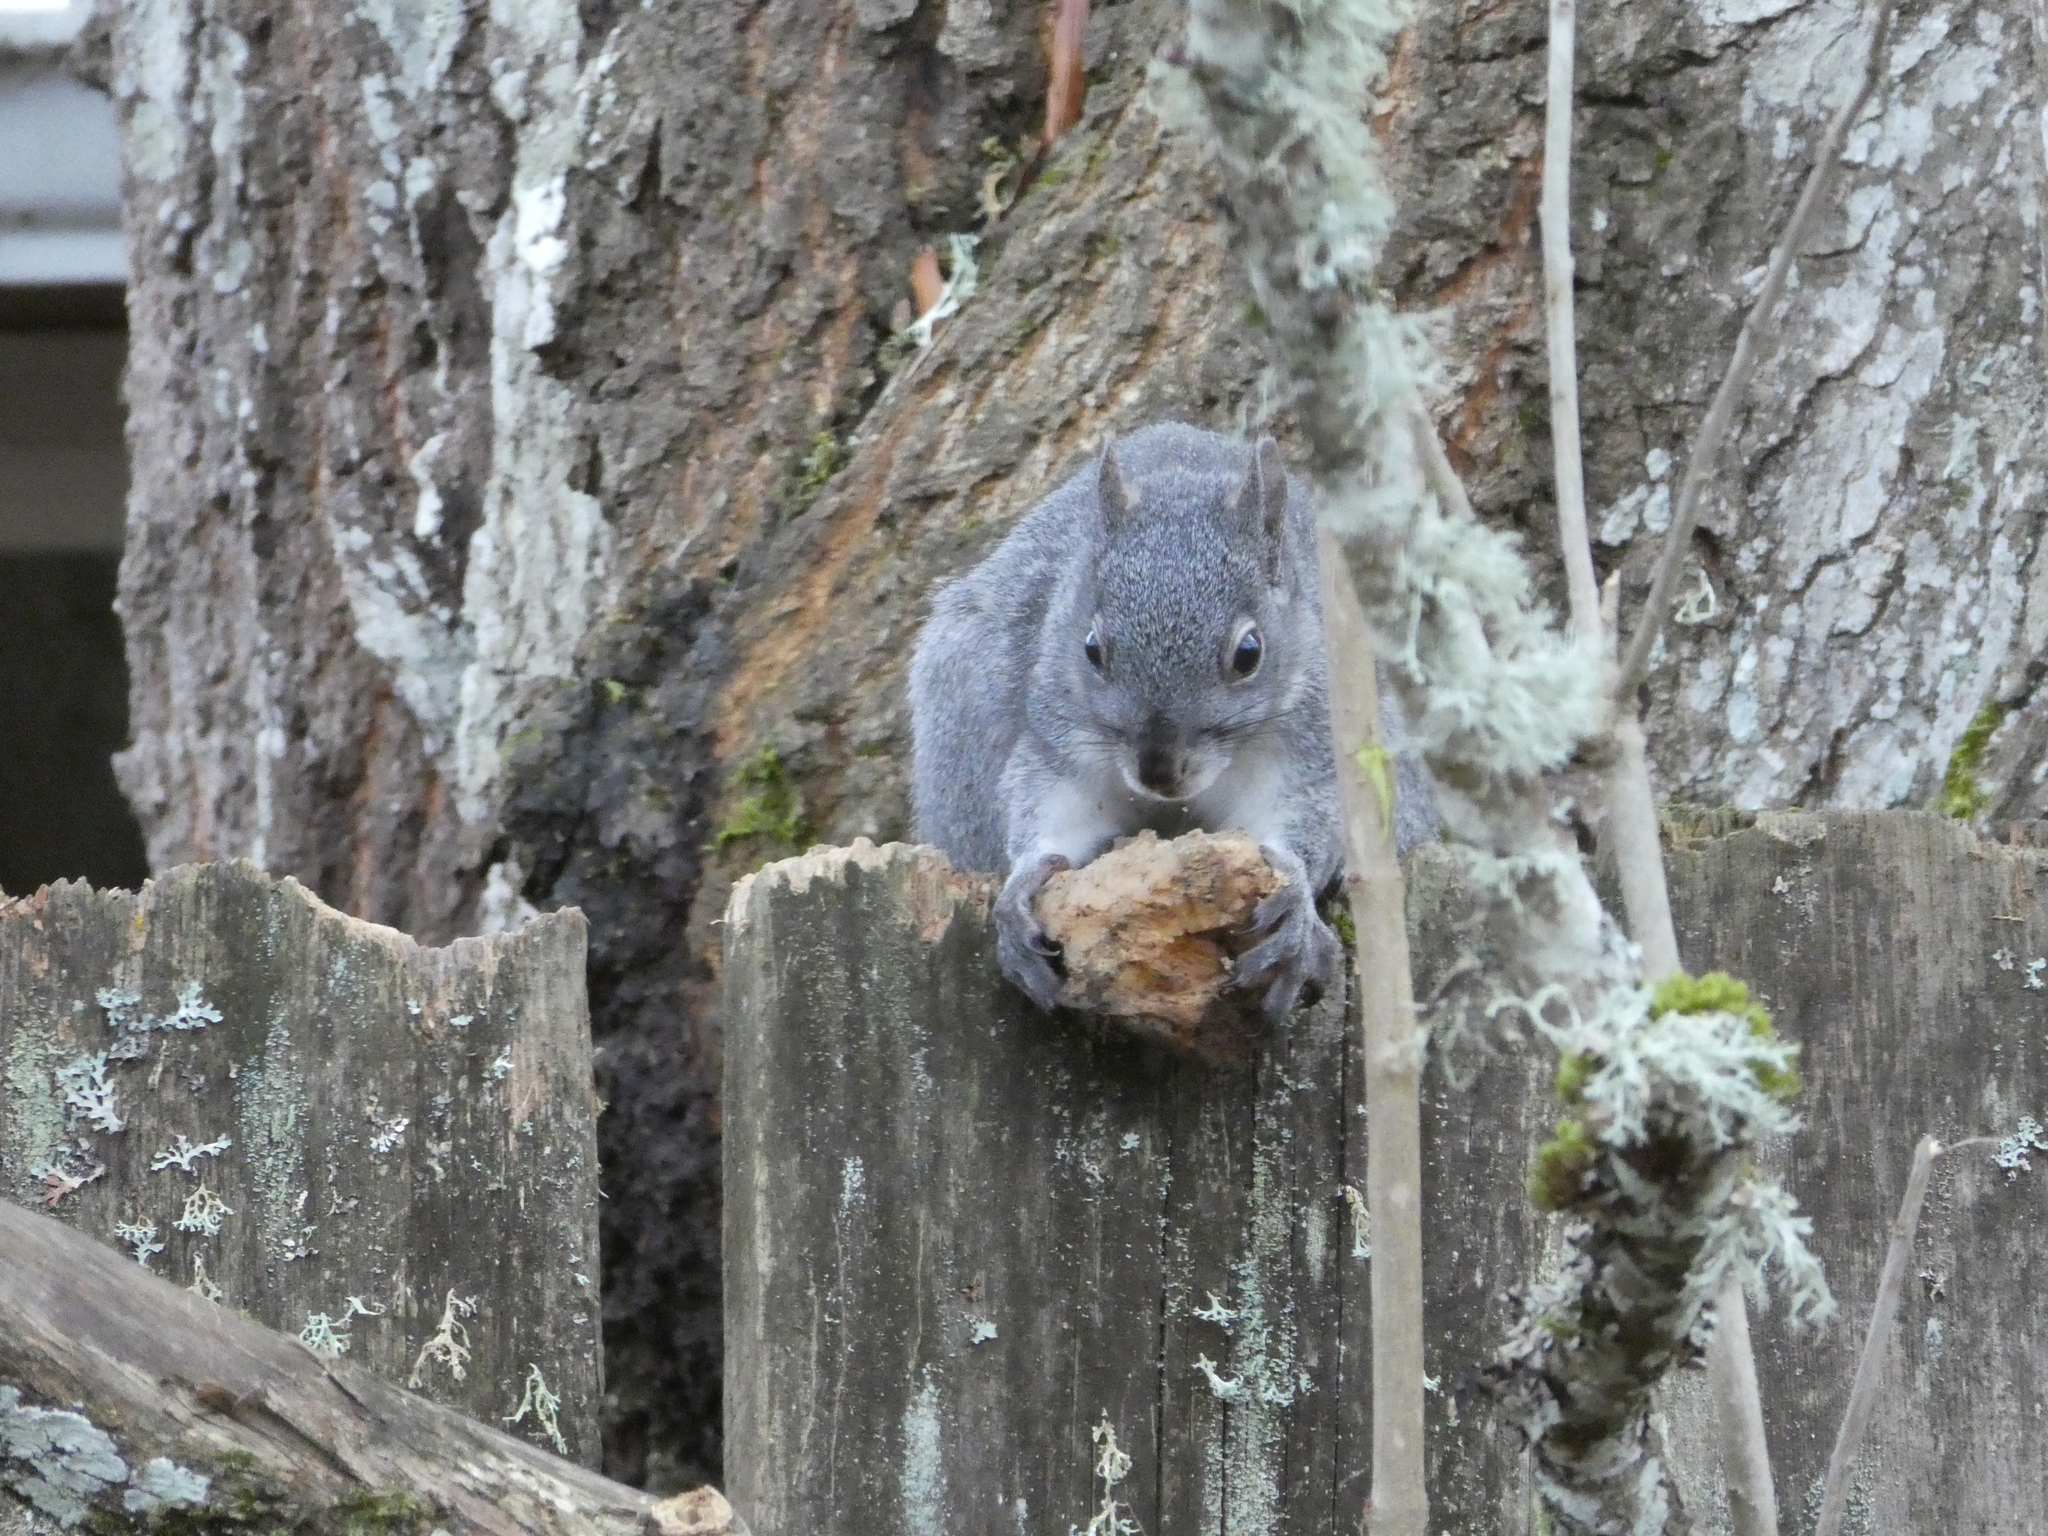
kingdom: Animalia
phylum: Chordata
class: Mammalia
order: Rodentia
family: Sciuridae
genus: Sciurus
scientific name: Sciurus griseus
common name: Western gray squirrel
